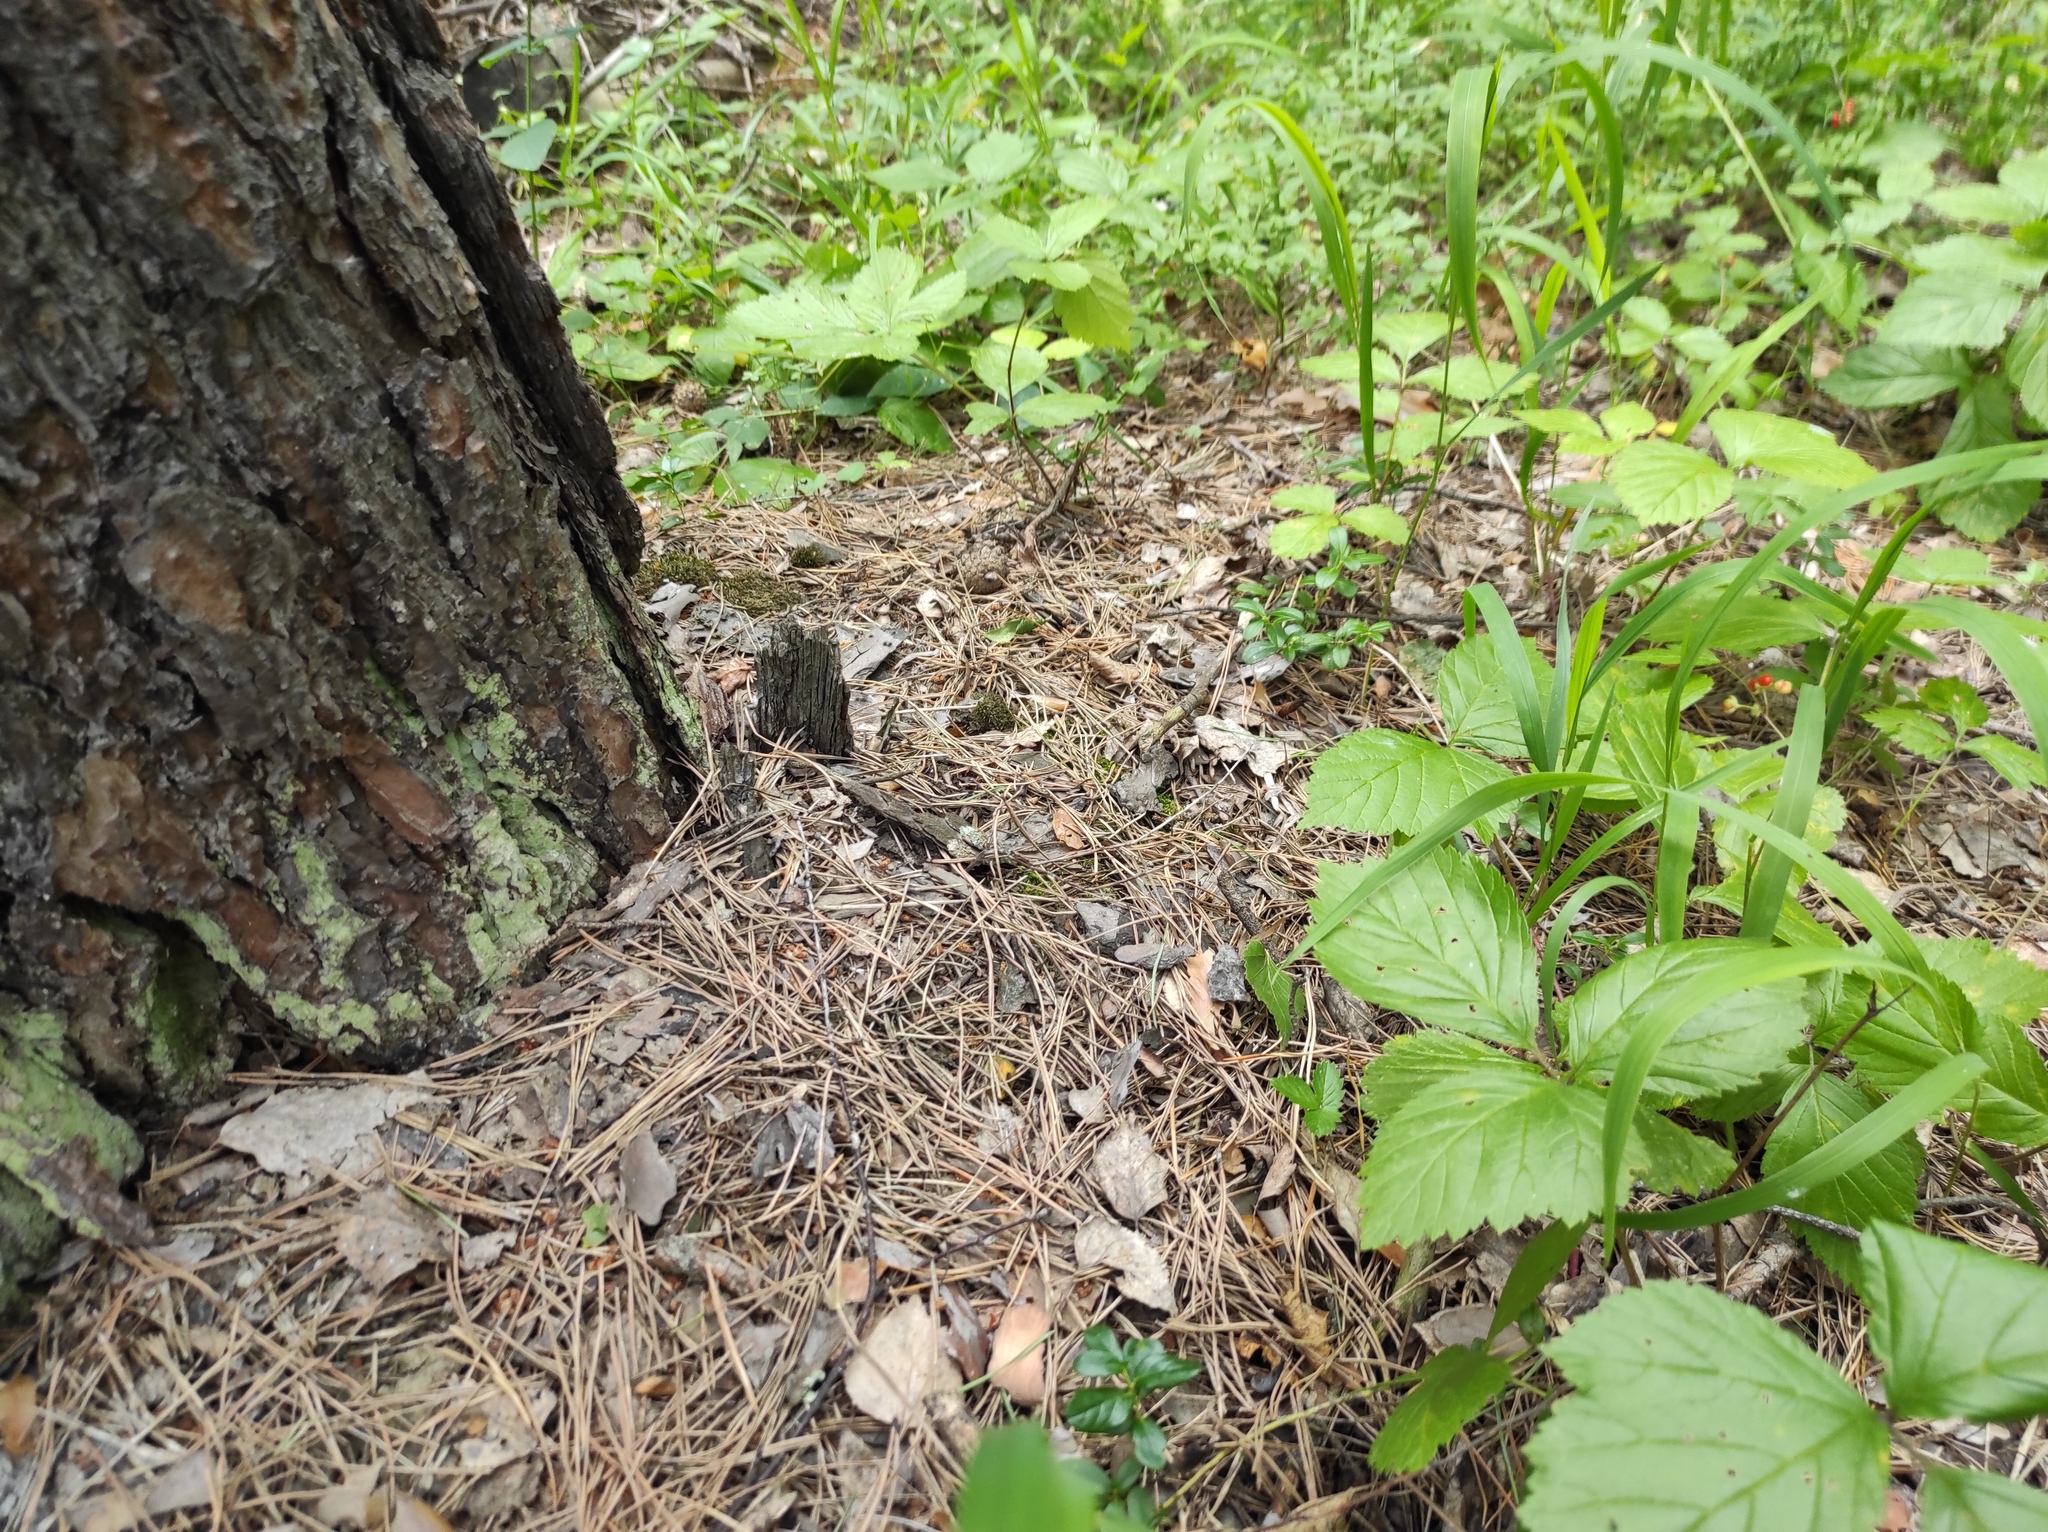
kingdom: Plantae
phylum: Tracheophyta
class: Pinopsida
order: Pinales
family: Pinaceae
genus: Pinus
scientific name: Pinus sylvestris
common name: Scots pine
